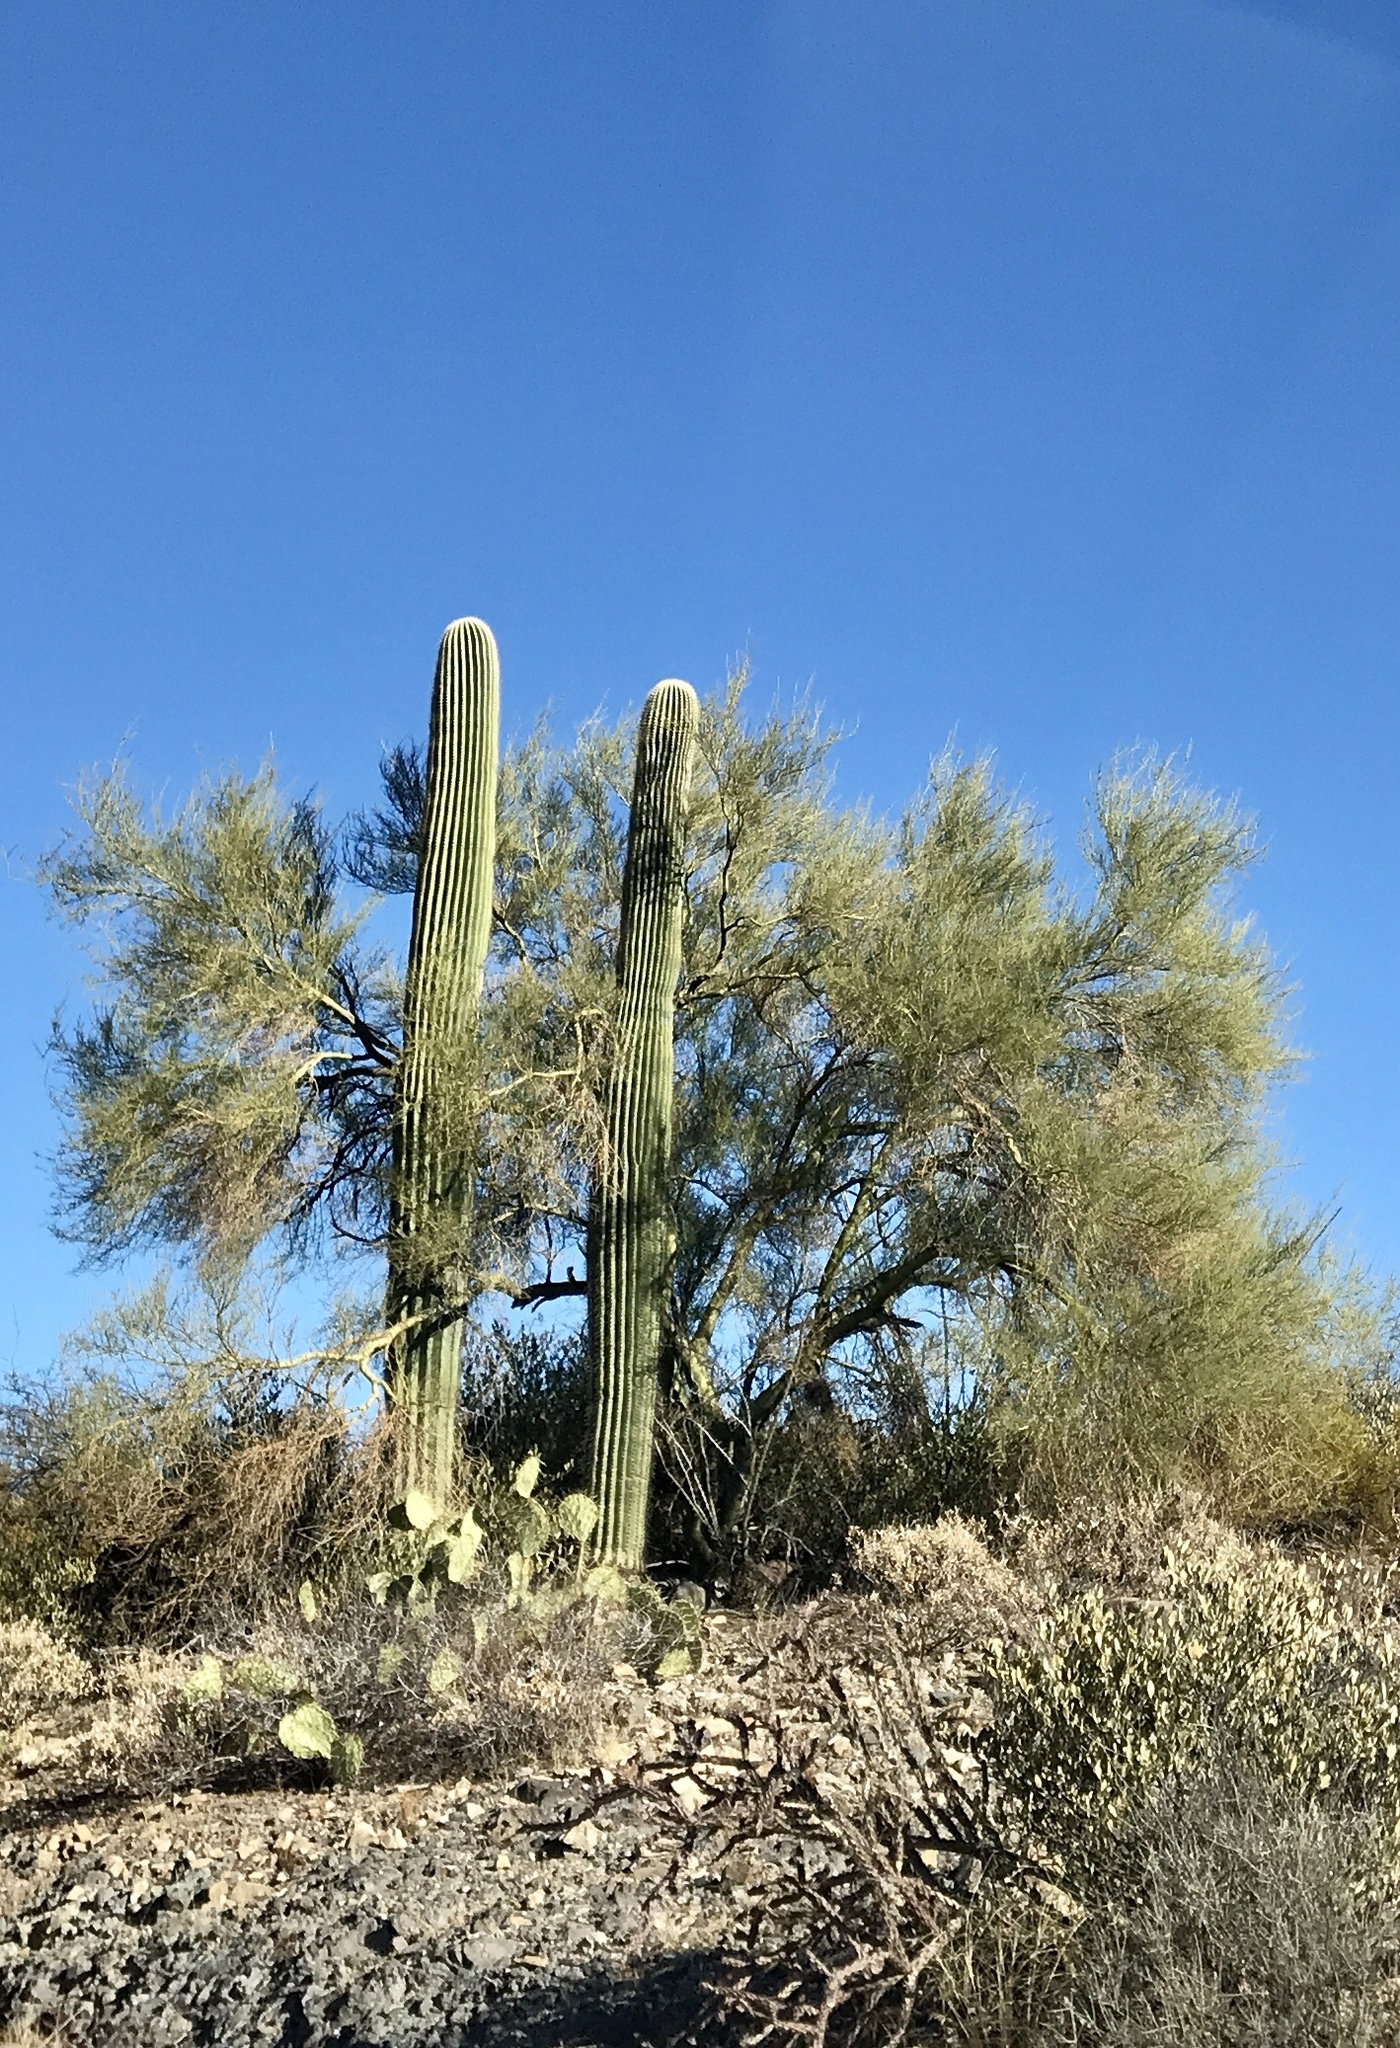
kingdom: Plantae
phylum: Tracheophyta
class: Magnoliopsida
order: Caryophyllales
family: Cactaceae
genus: Carnegiea
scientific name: Carnegiea gigantea
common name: Saguaro
